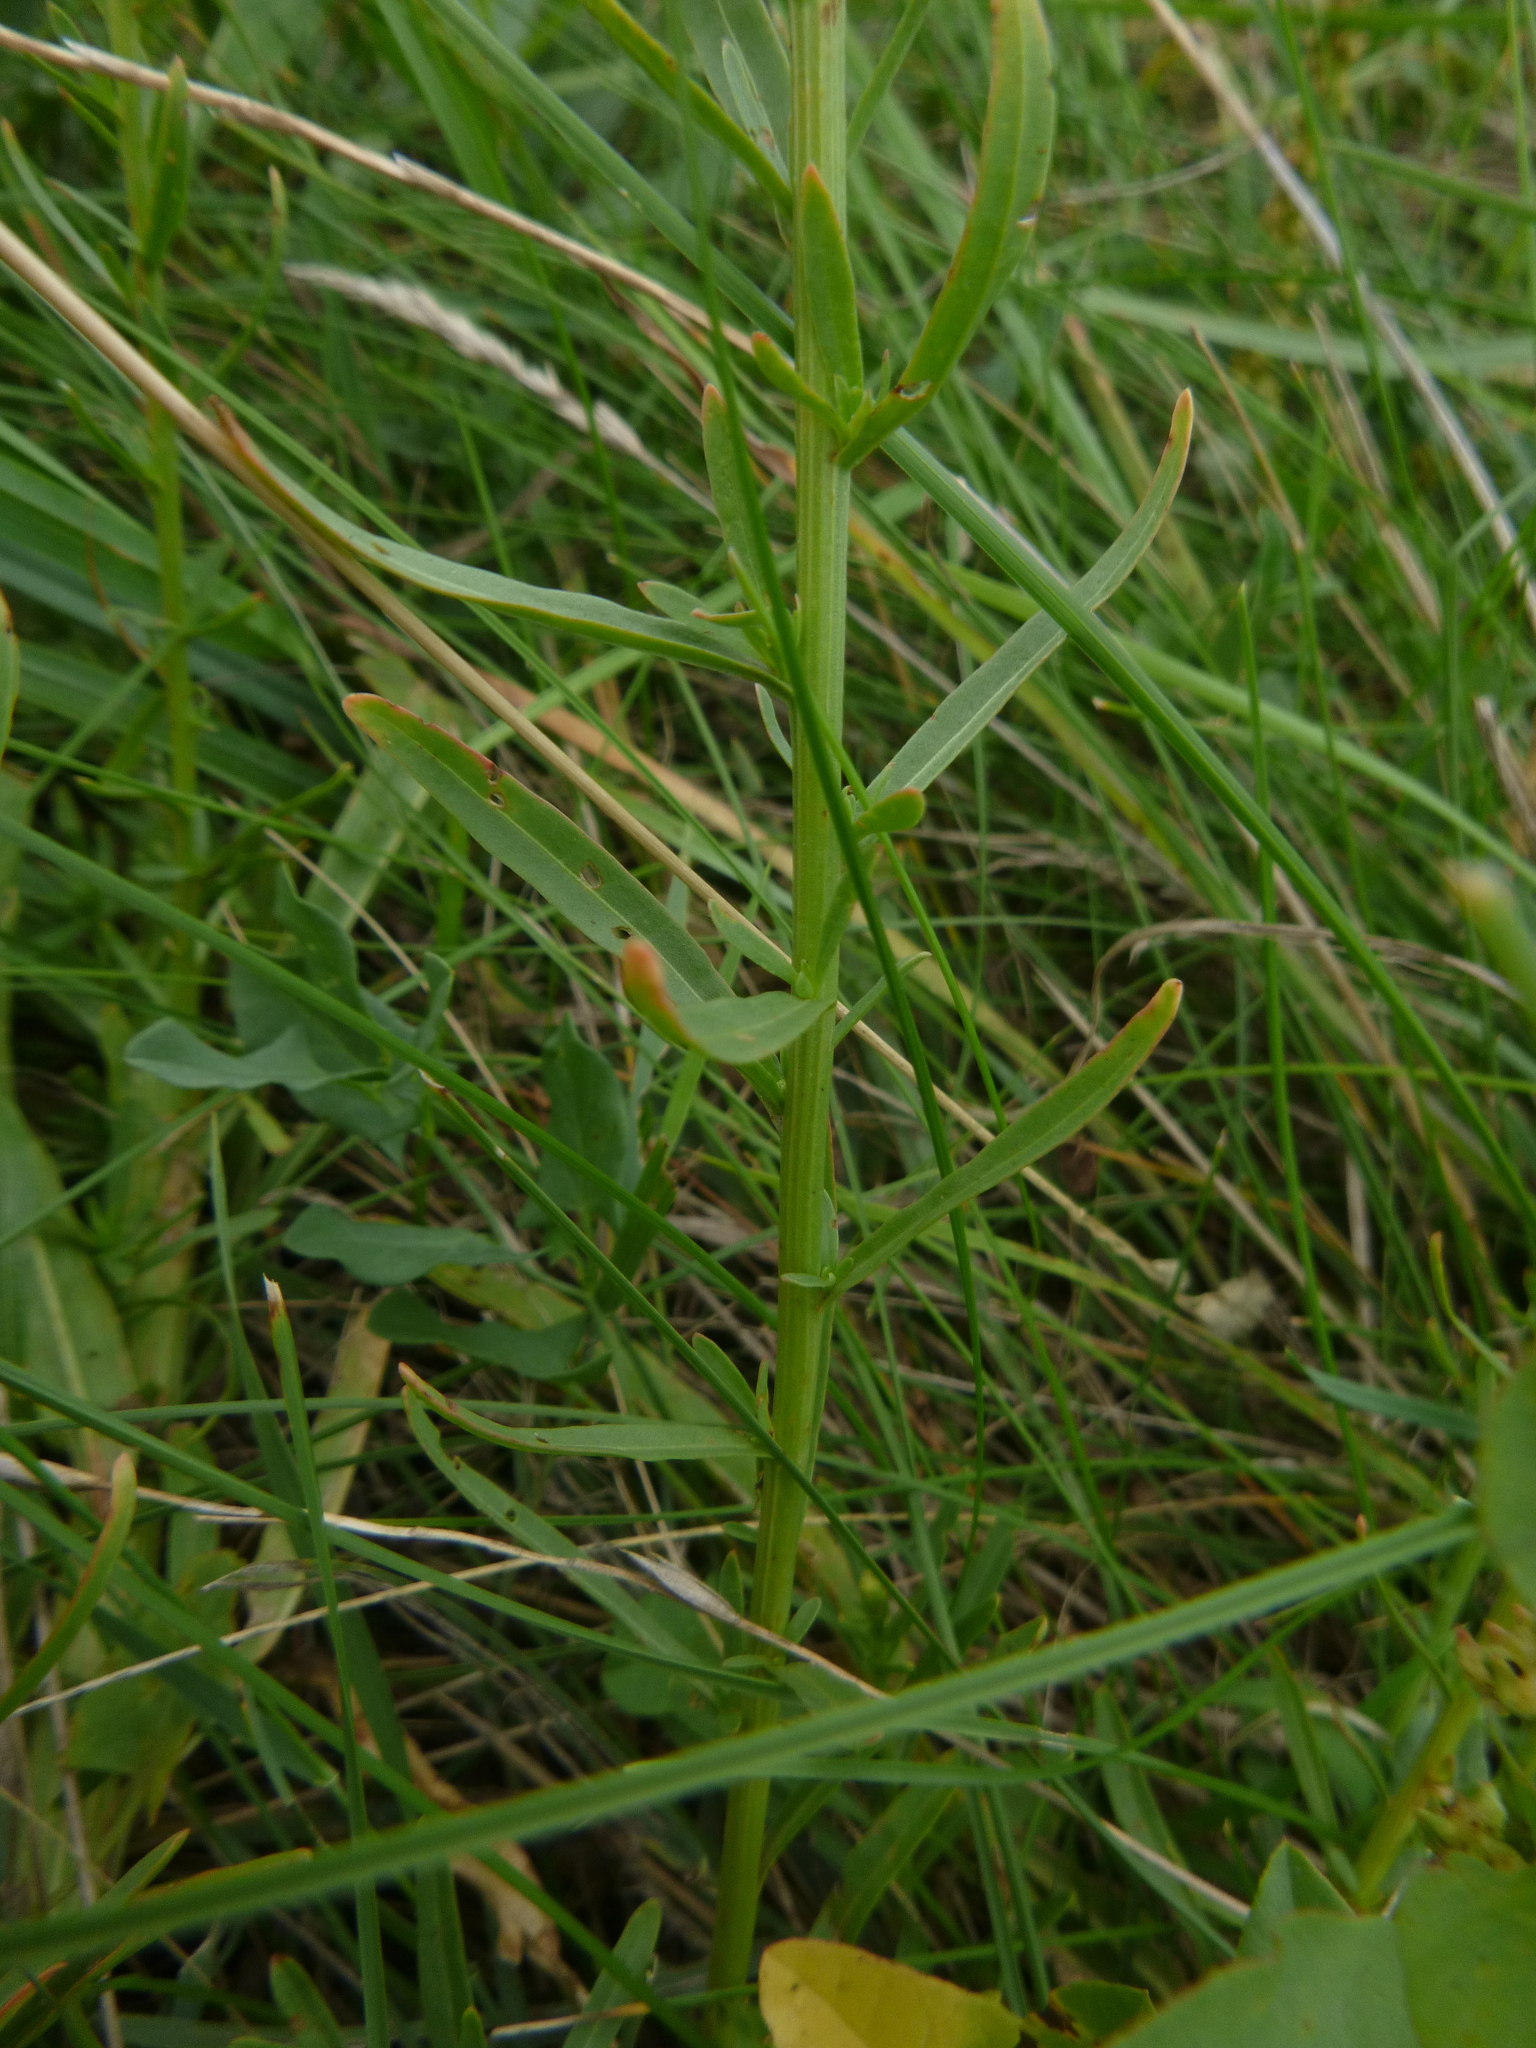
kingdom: Plantae
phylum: Tracheophyta
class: Magnoliopsida
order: Brassicales
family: Resedaceae
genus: Reseda
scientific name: Reseda luteola
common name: Weld
